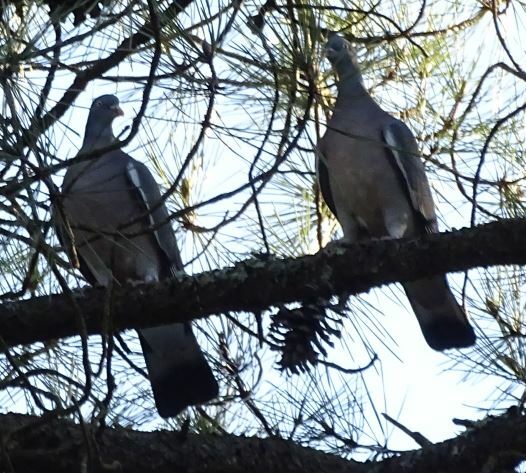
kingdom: Animalia
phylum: Chordata
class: Aves
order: Columbiformes
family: Columbidae
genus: Columba
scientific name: Columba palumbus
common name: Common wood pigeon
